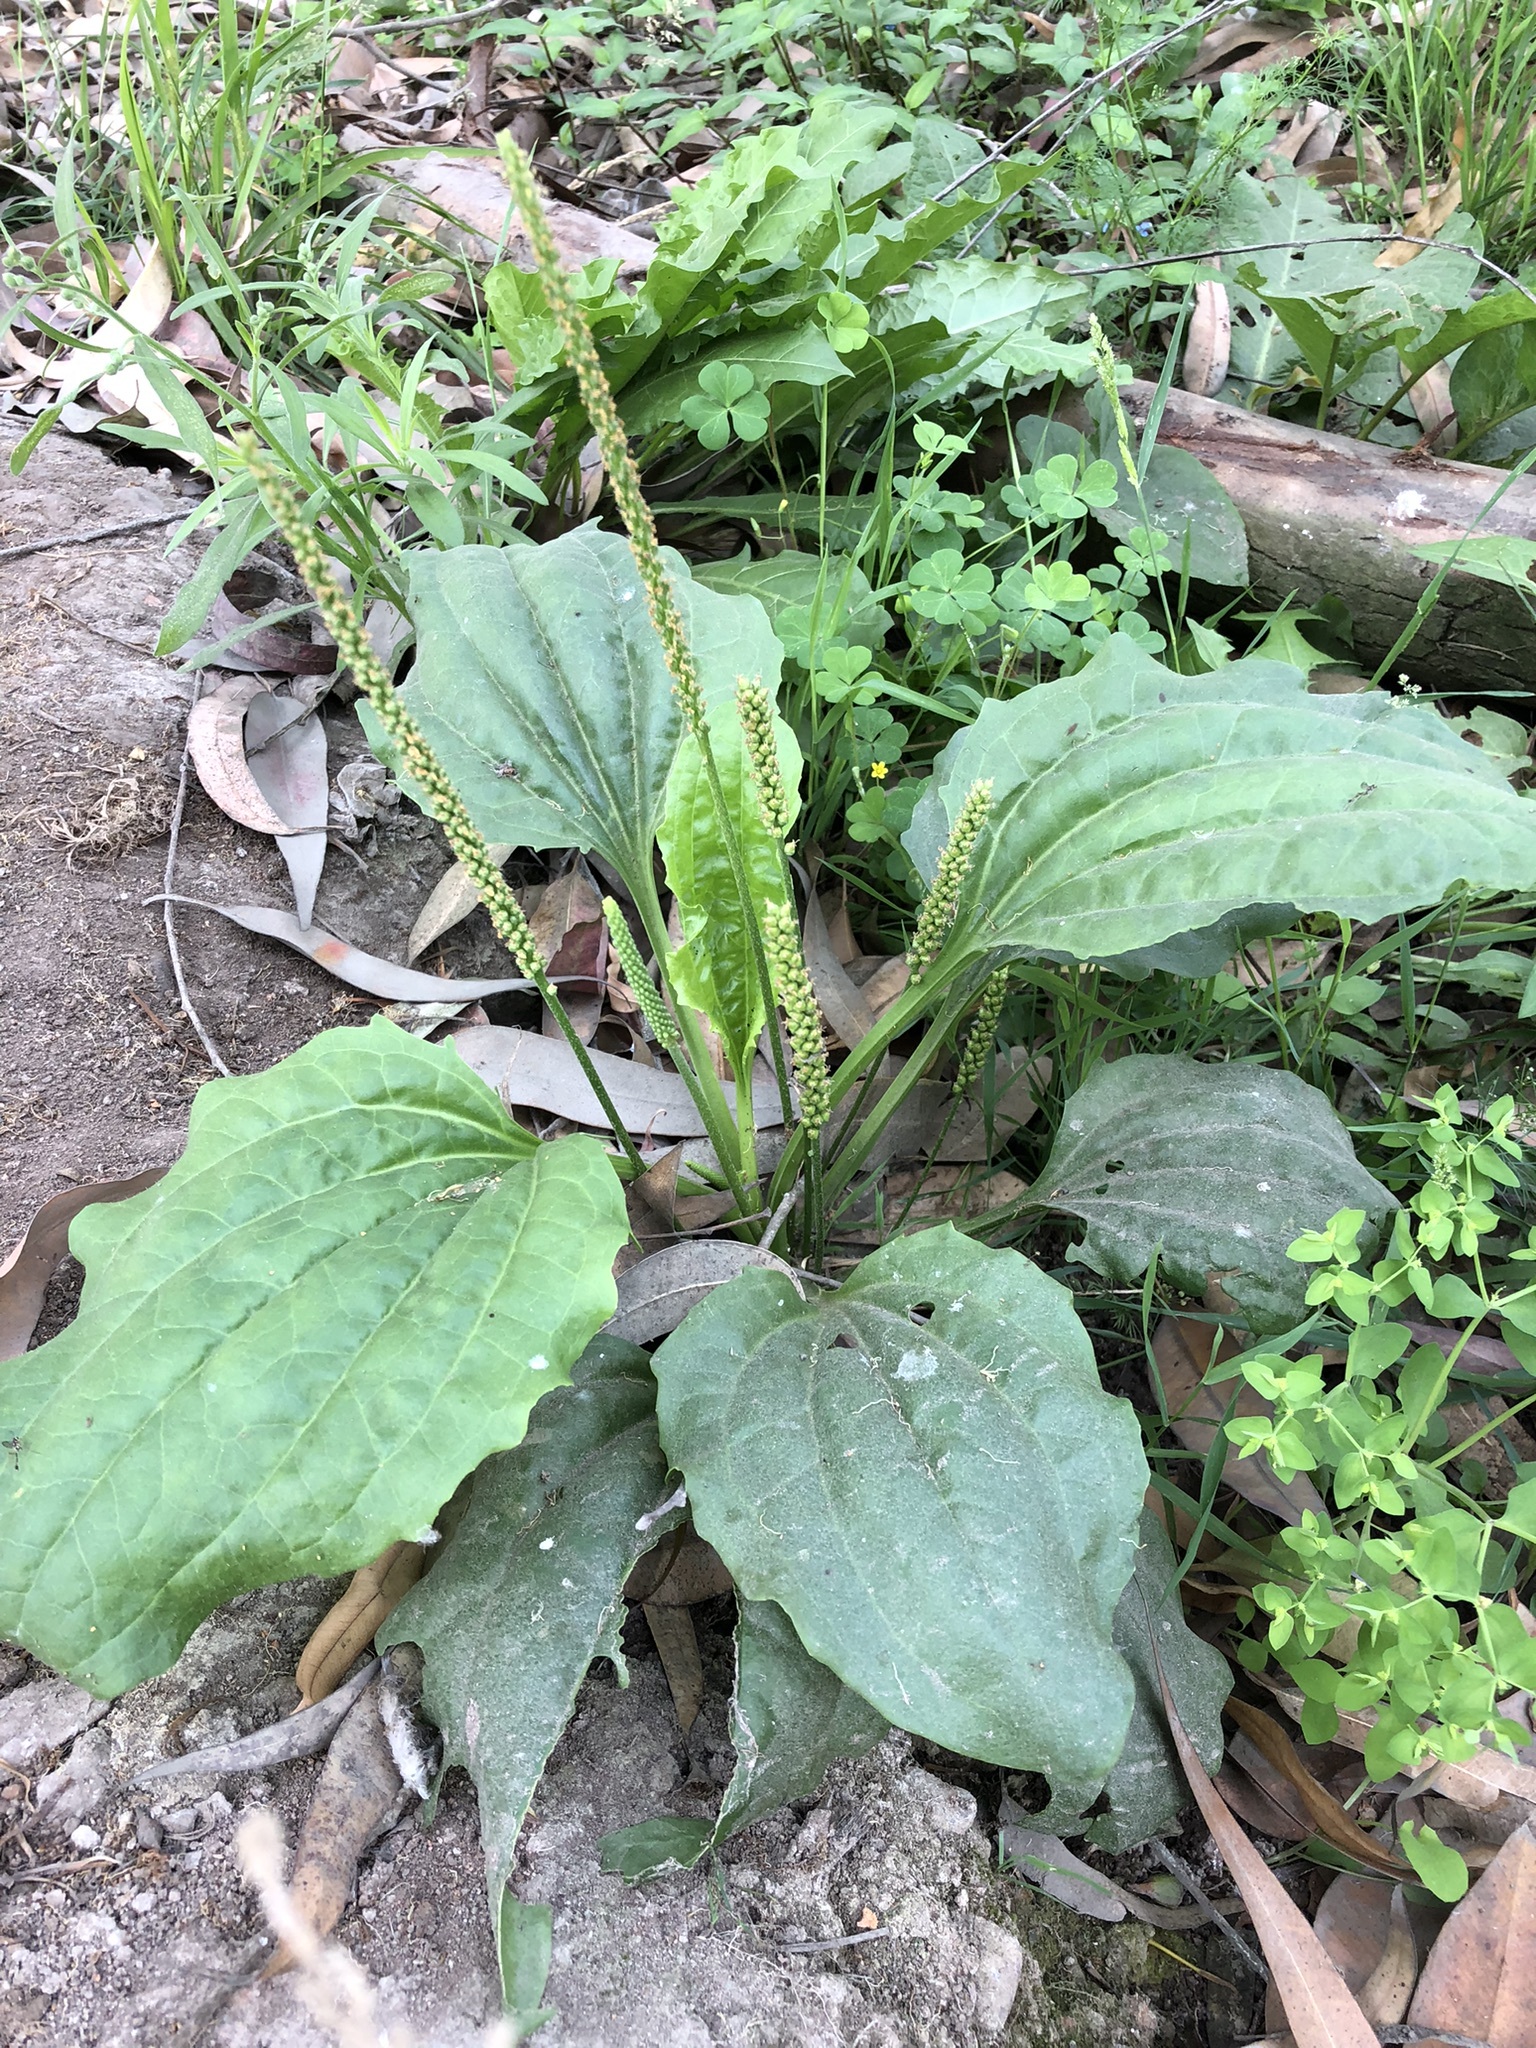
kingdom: Plantae
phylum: Tracheophyta
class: Magnoliopsida
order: Lamiales
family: Plantaginaceae
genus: Plantago
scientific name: Plantago major
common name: Common plantain
